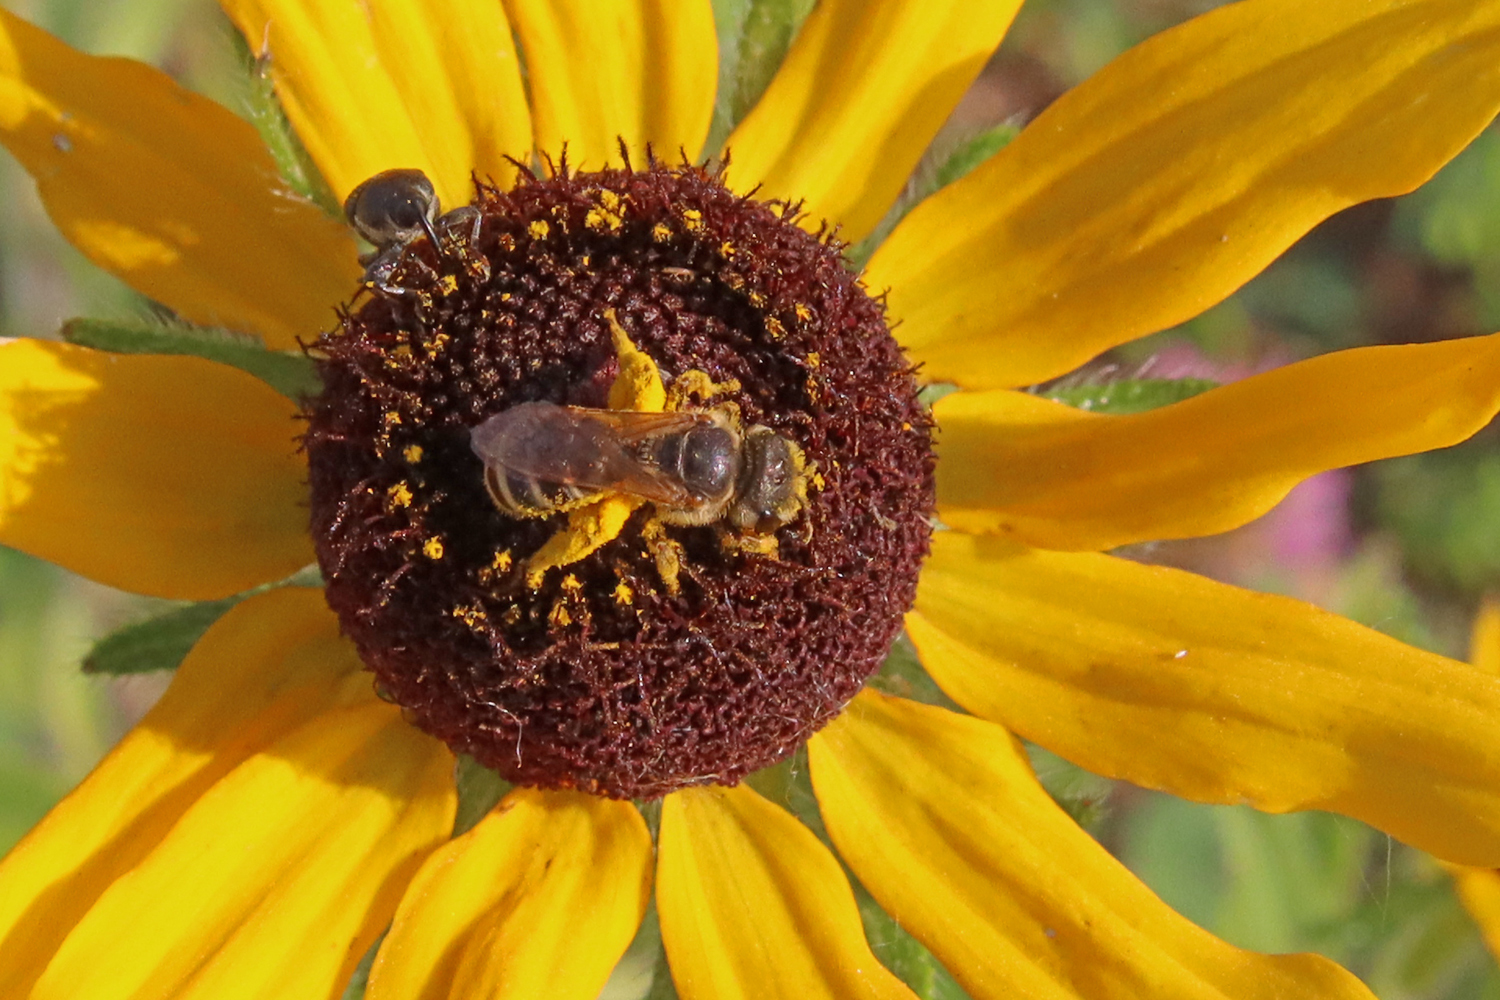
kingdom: Animalia
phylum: Arthropoda
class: Insecta
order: Hymenoptera
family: Halictidae
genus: Halictus
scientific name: Halictus ligatus
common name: Ligated furrow bee
